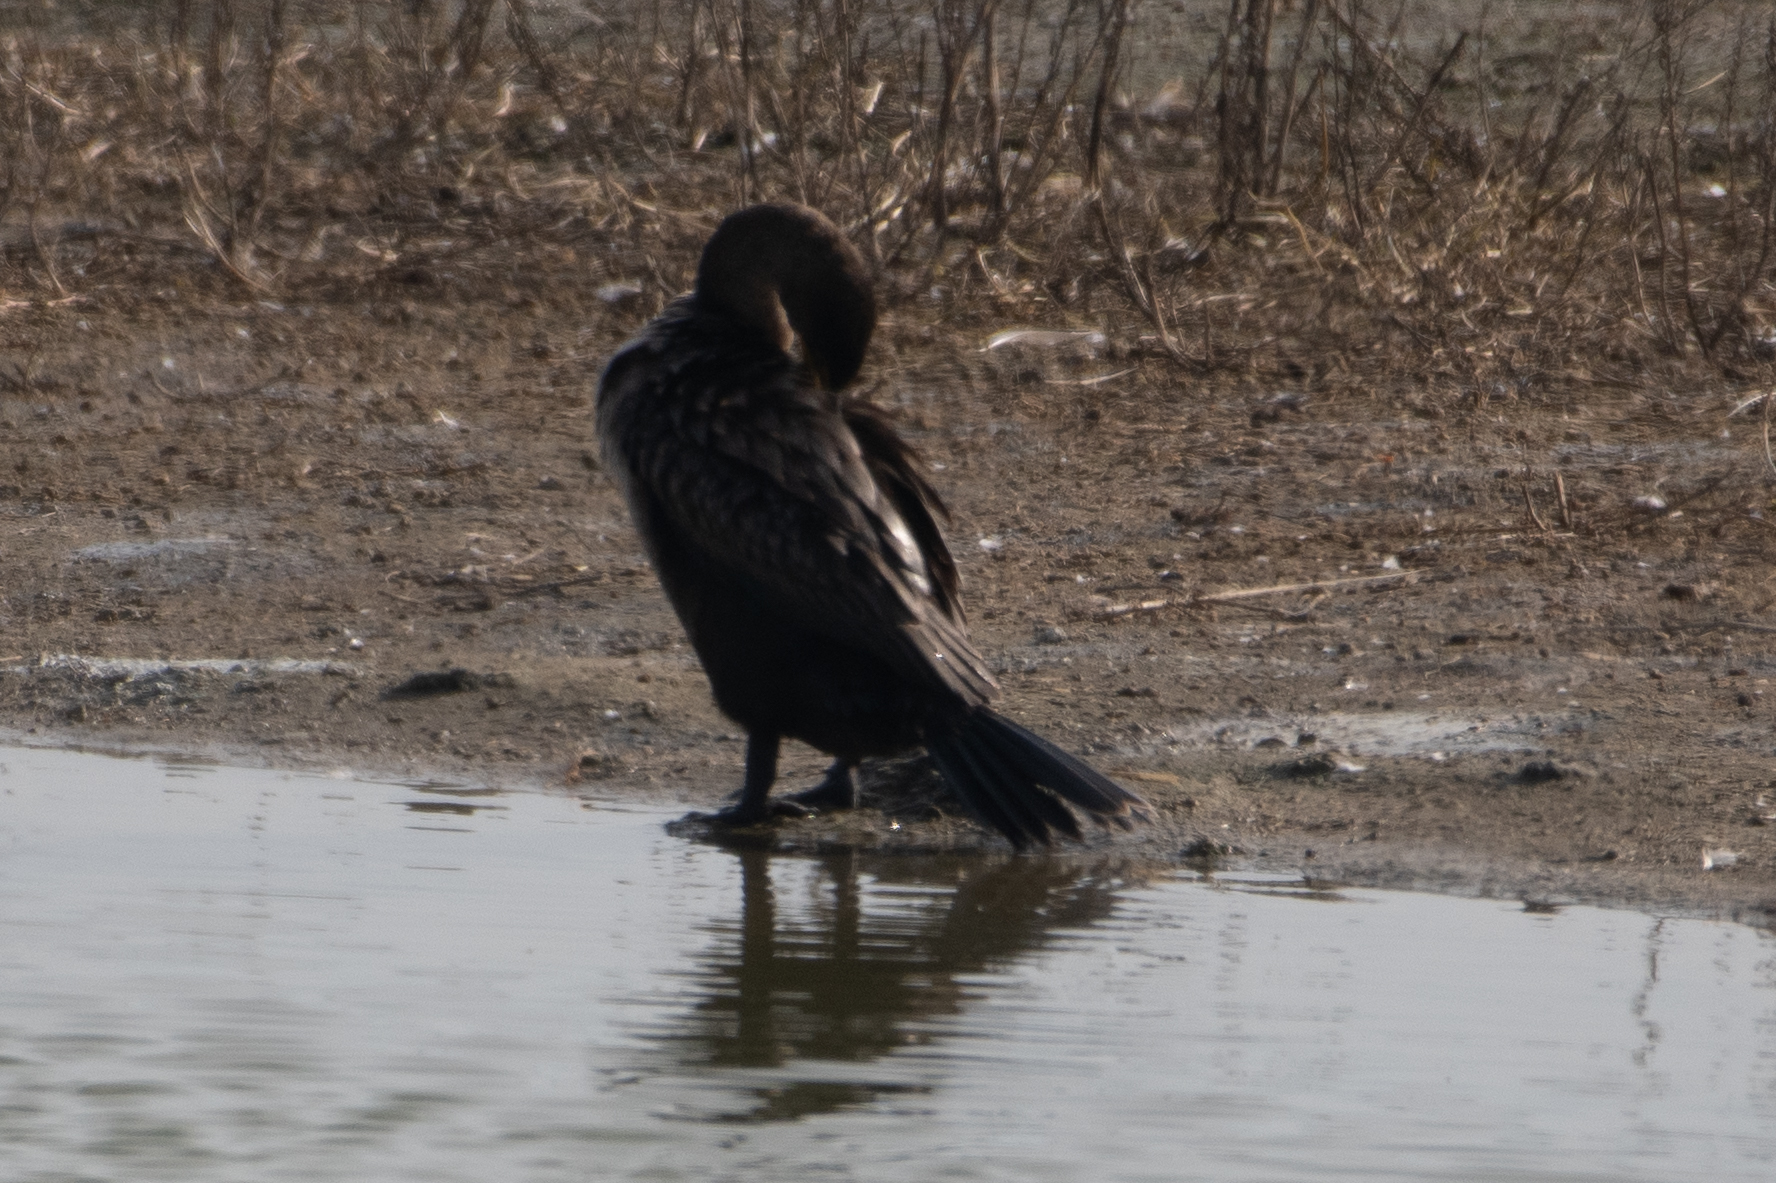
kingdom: Animalia
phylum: Chordata
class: Aves
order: Suliformes
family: Phalacrocoracidae
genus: Phalacrocorax
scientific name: Phalacrocorax auritus
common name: Double-crested cormorant
